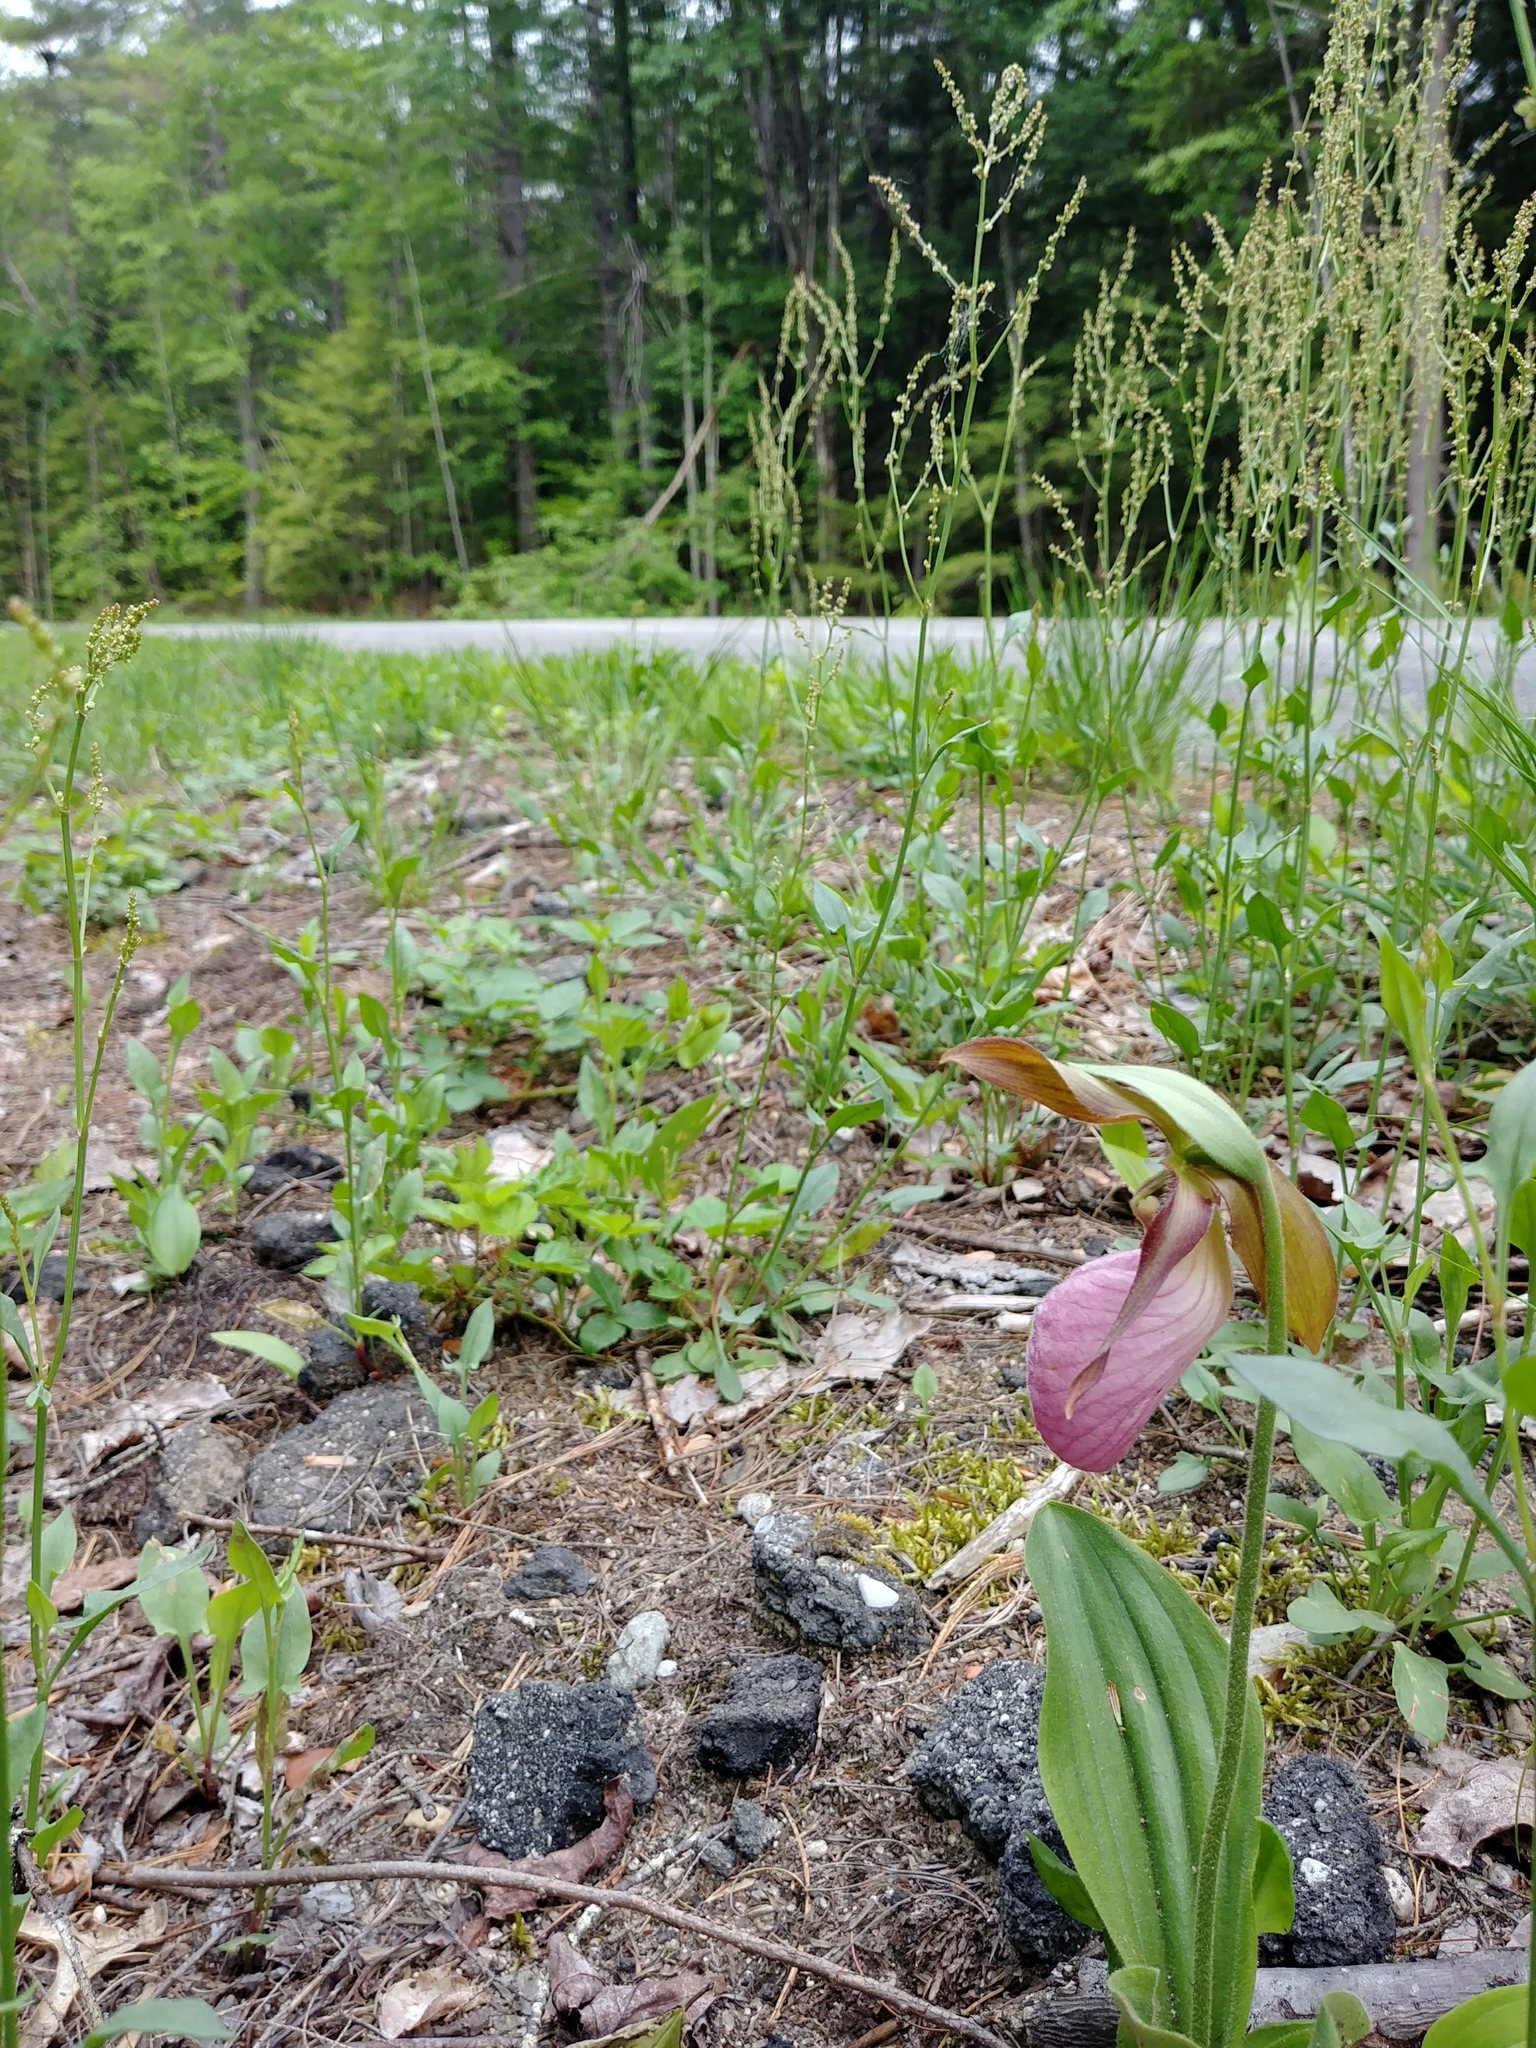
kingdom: Plantae
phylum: Tracheophyta
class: Liliopsida
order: Asparagales
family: Orchidaceae
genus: Cypripedium
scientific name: Cypripedium acaule
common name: Pink lady's-slipper
